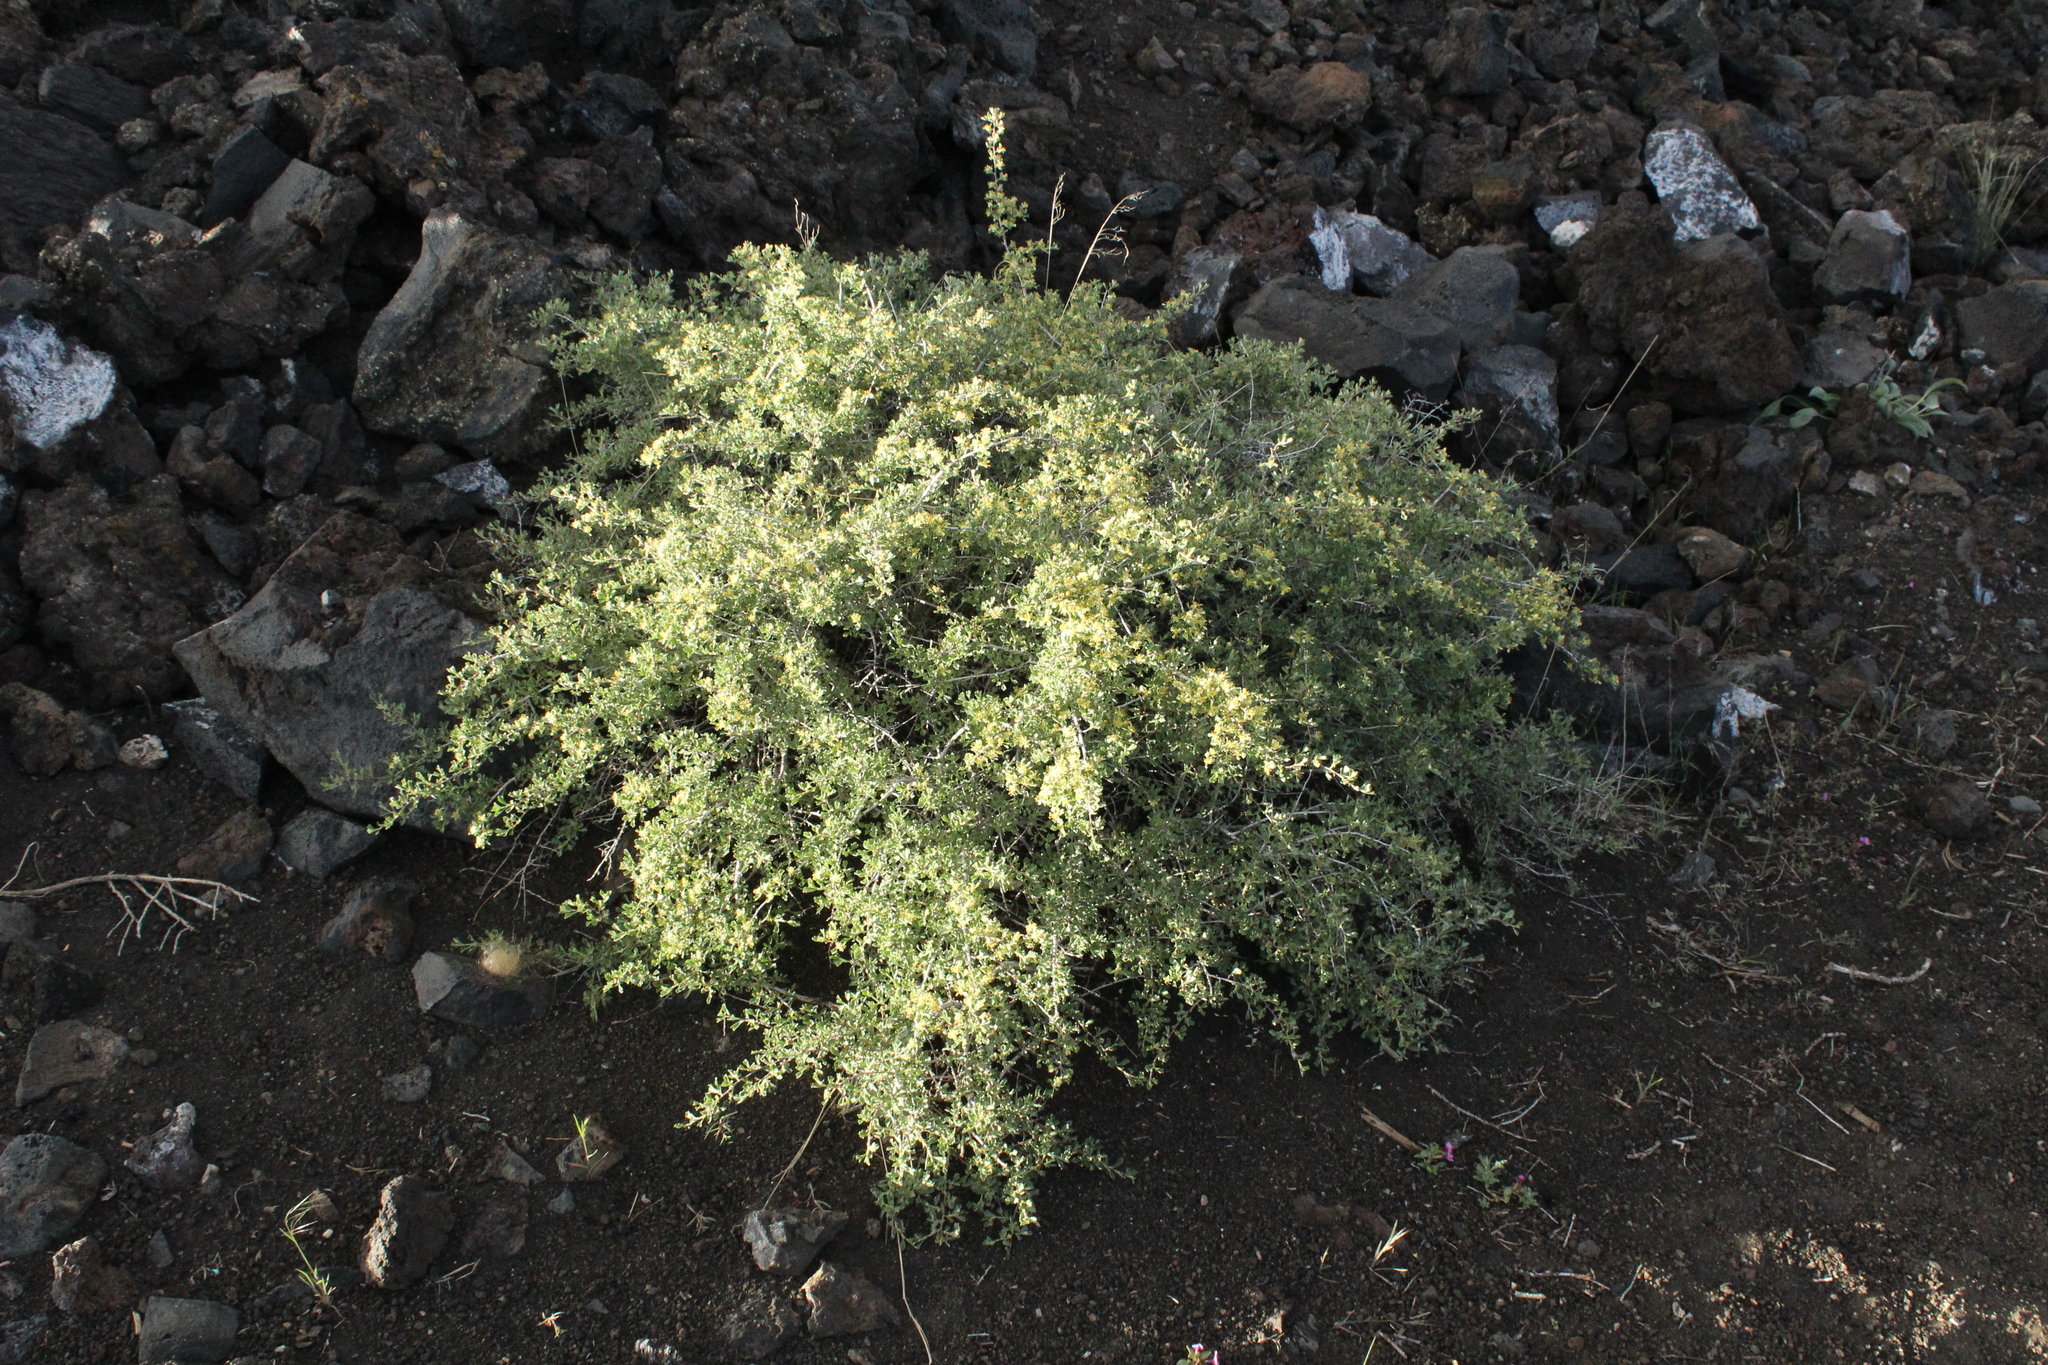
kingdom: Plantae
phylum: Tracheophyta
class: Magnoliopsida
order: Rosales
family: Rosaceae
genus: Purshia
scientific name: Purshia tridentata
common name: Antelope bitterbrush
